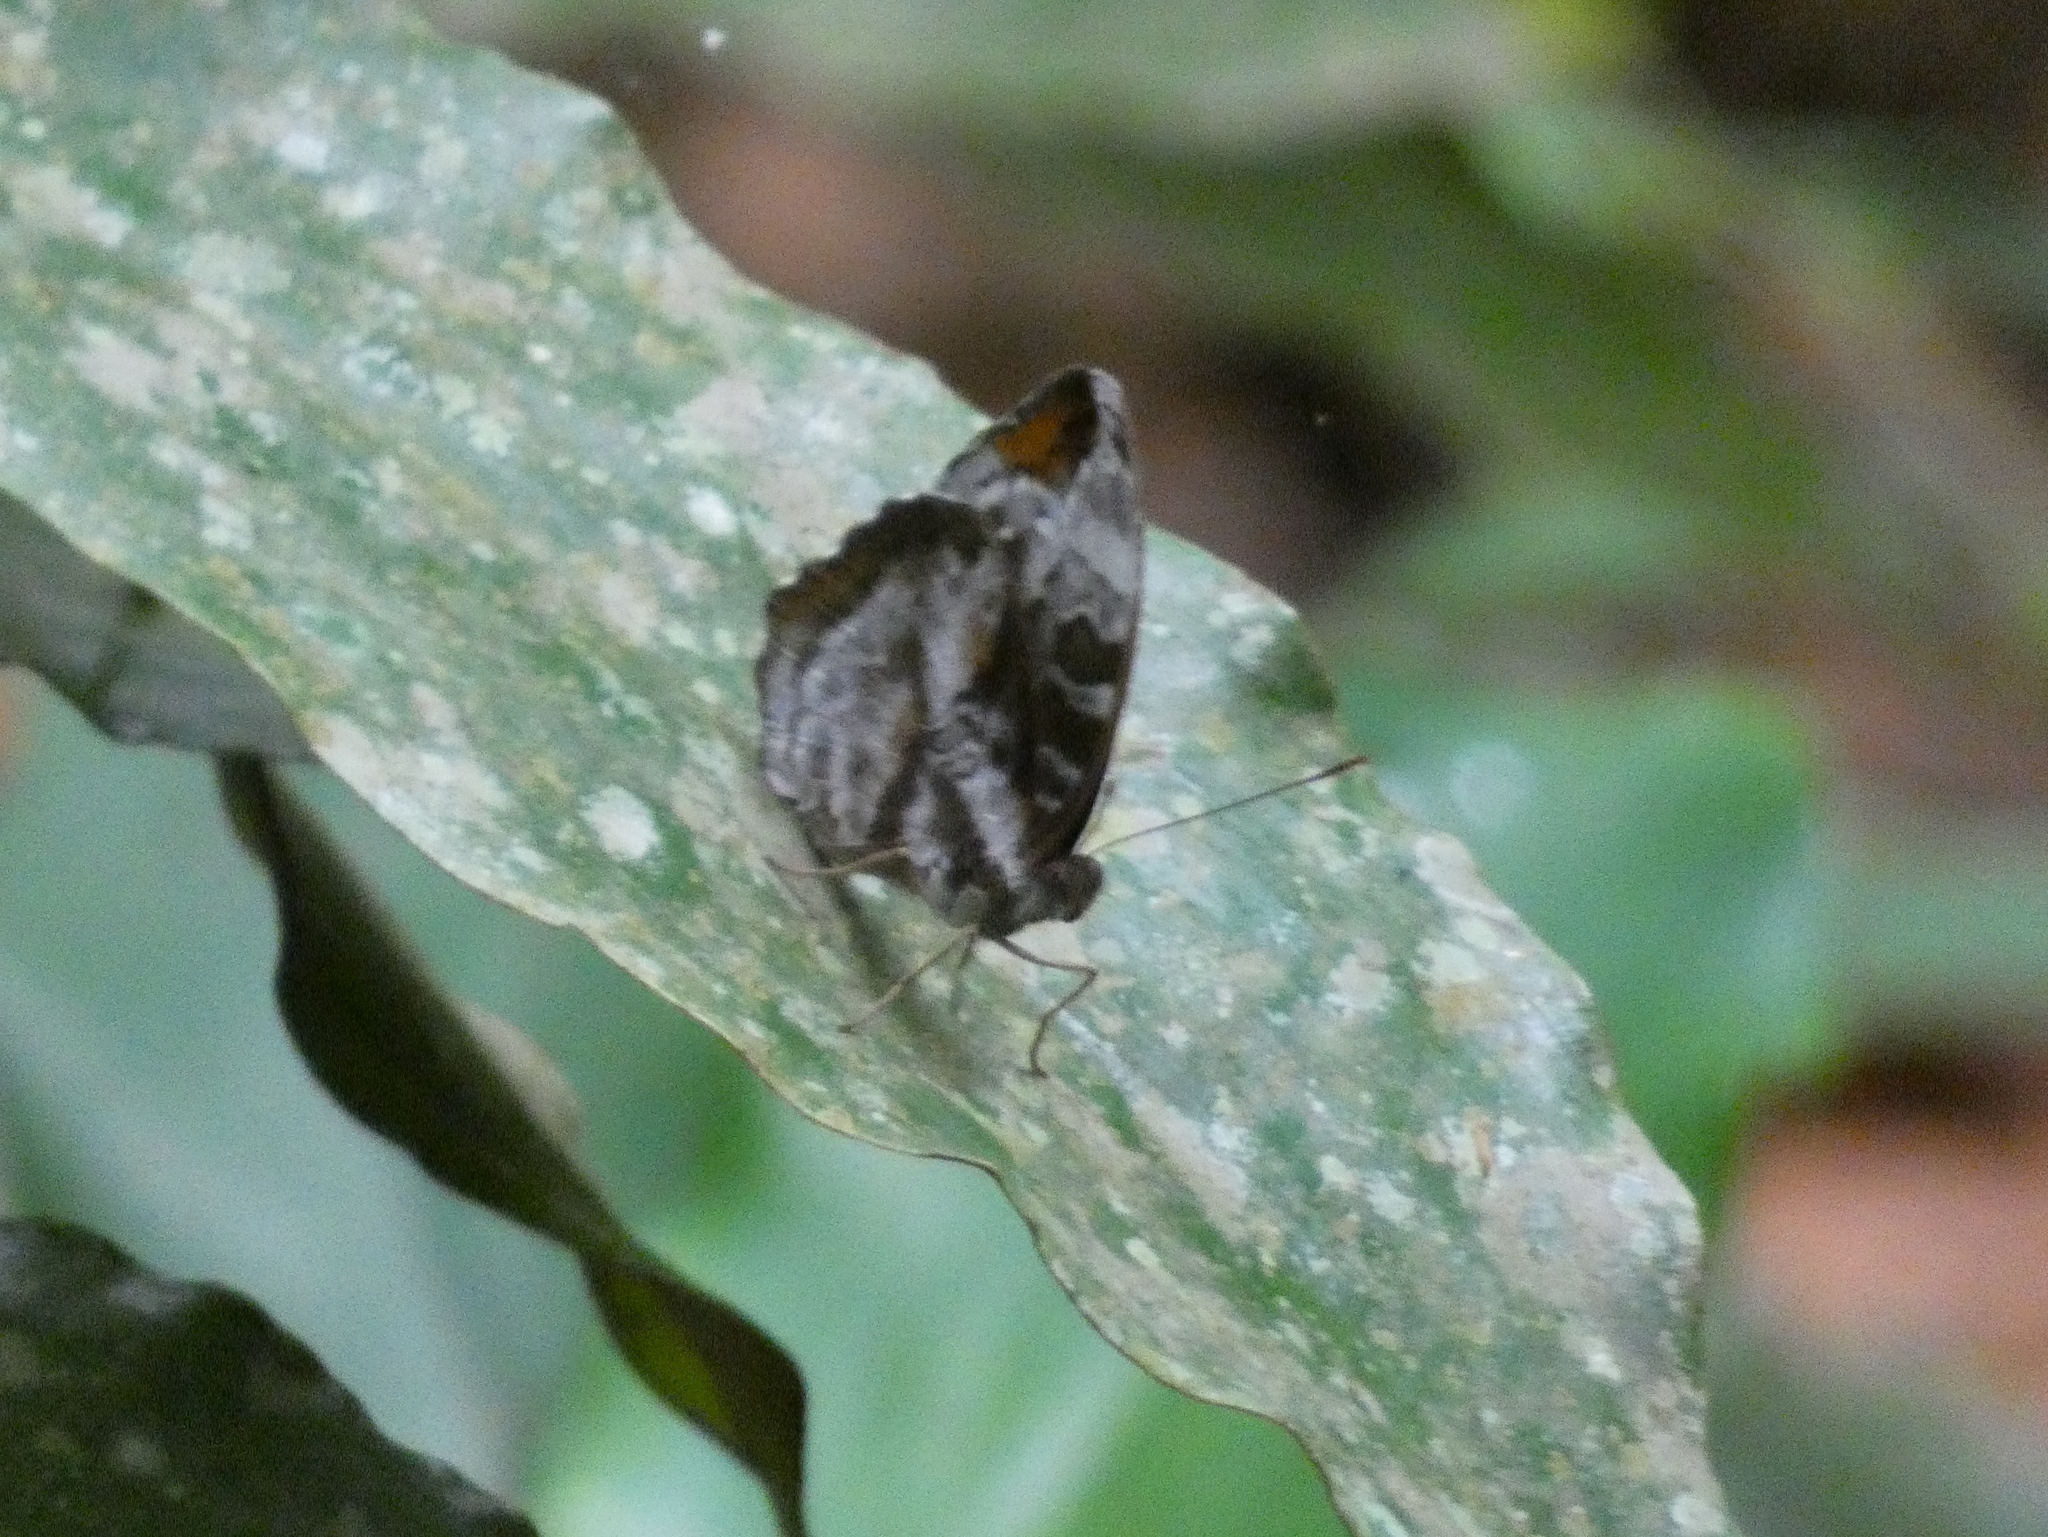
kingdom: Animalia
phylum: Arthropoda
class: Insecta
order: Lepidoptera
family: Nymphalidae
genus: Cynandra
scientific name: Cynandra opis
